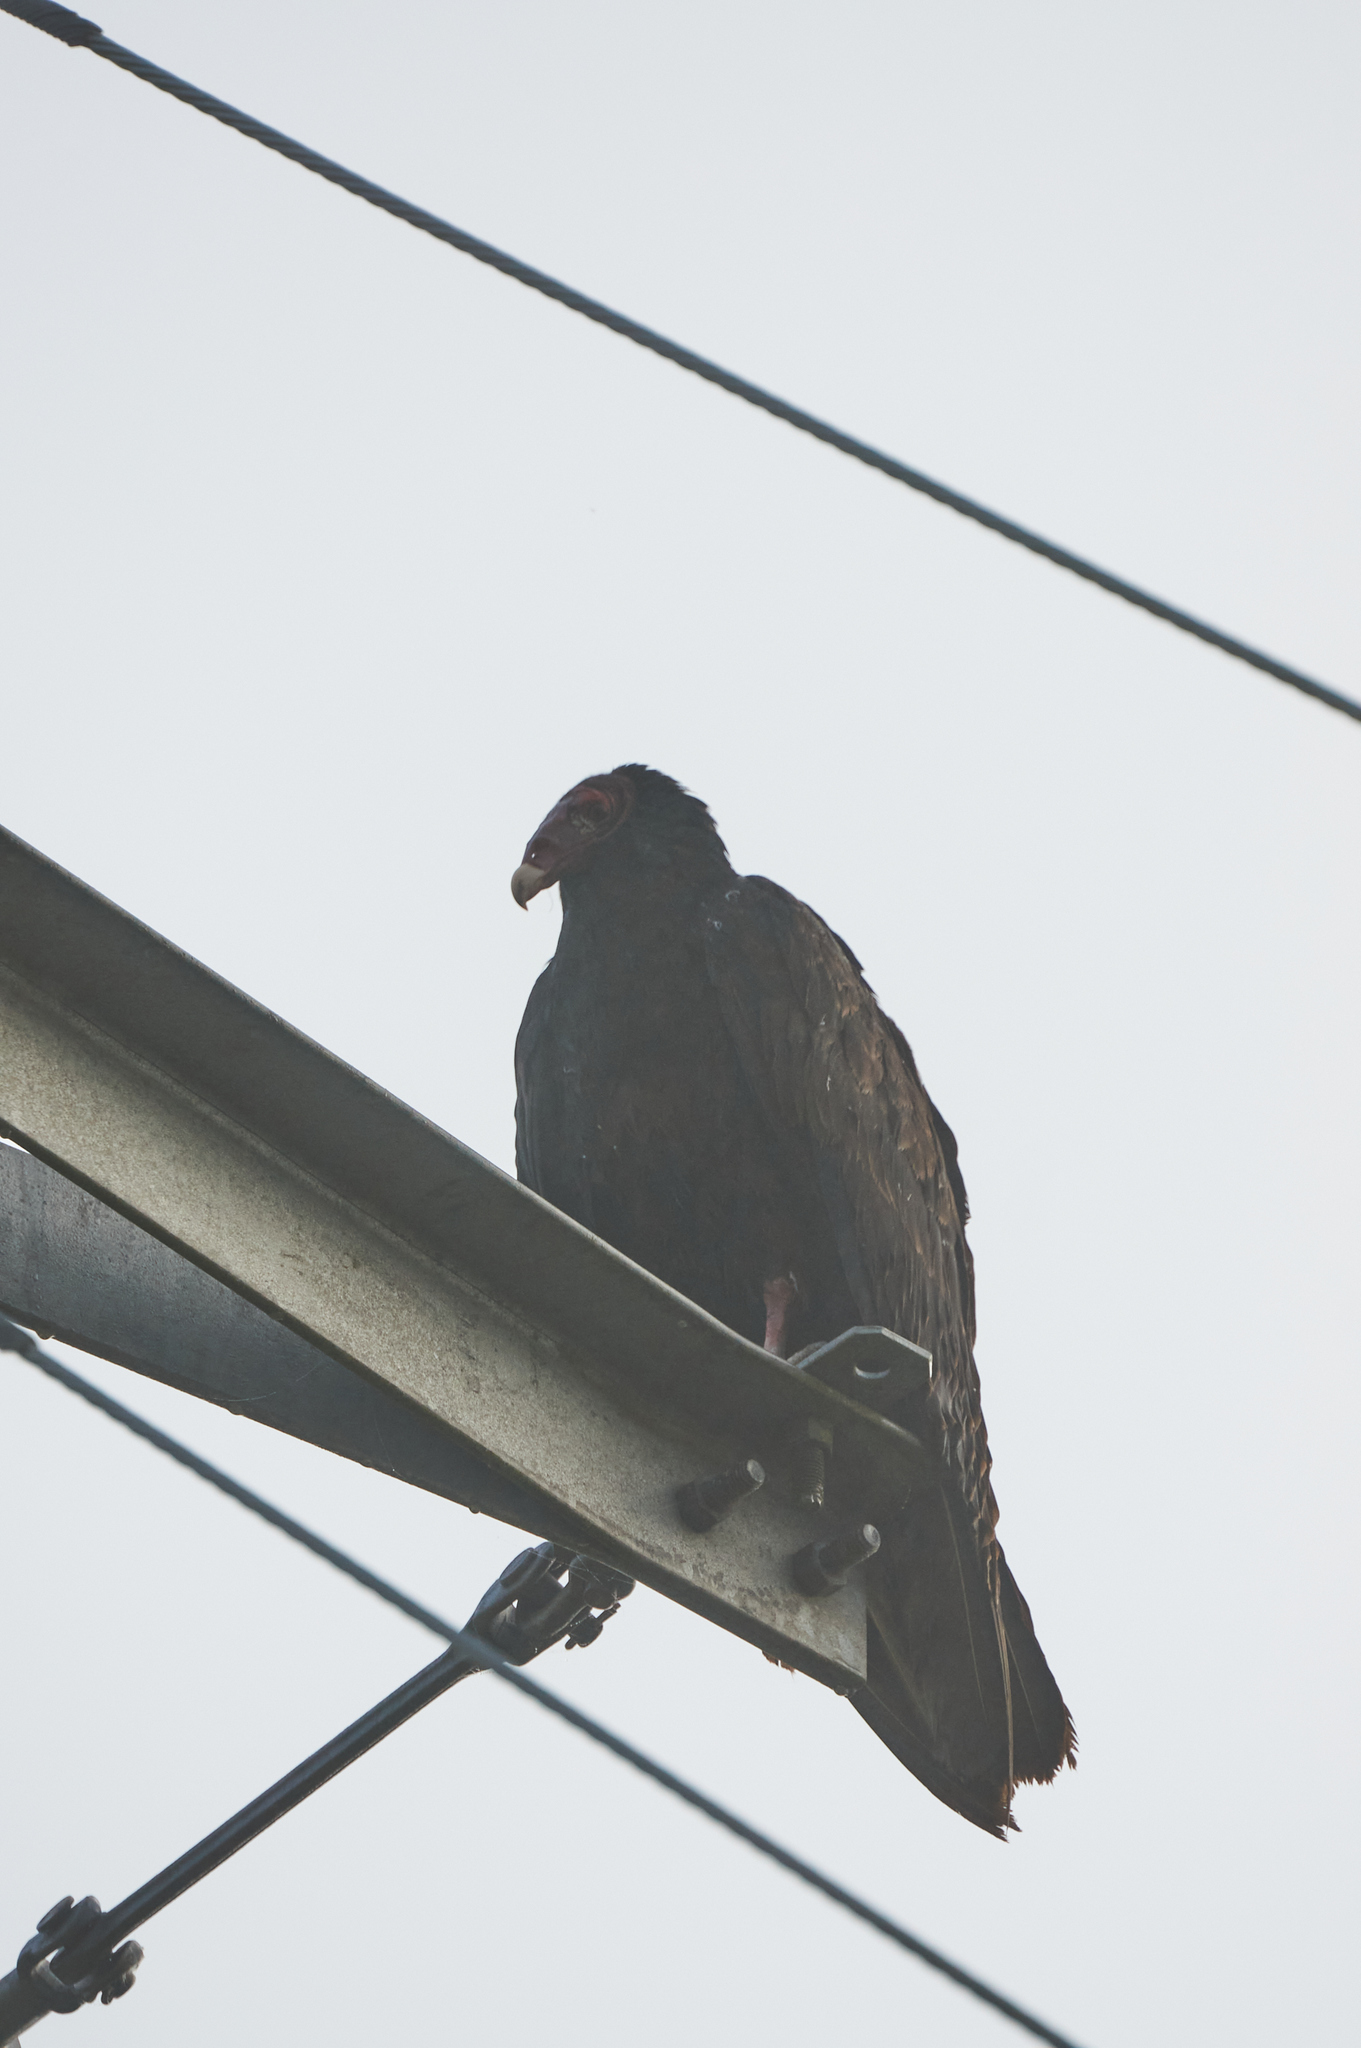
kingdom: Animalia
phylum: Chordata
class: Aves
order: Accipitriformes
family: Cathartidae
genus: Cathartes
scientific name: Cathartes aura
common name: Turkey vulture
